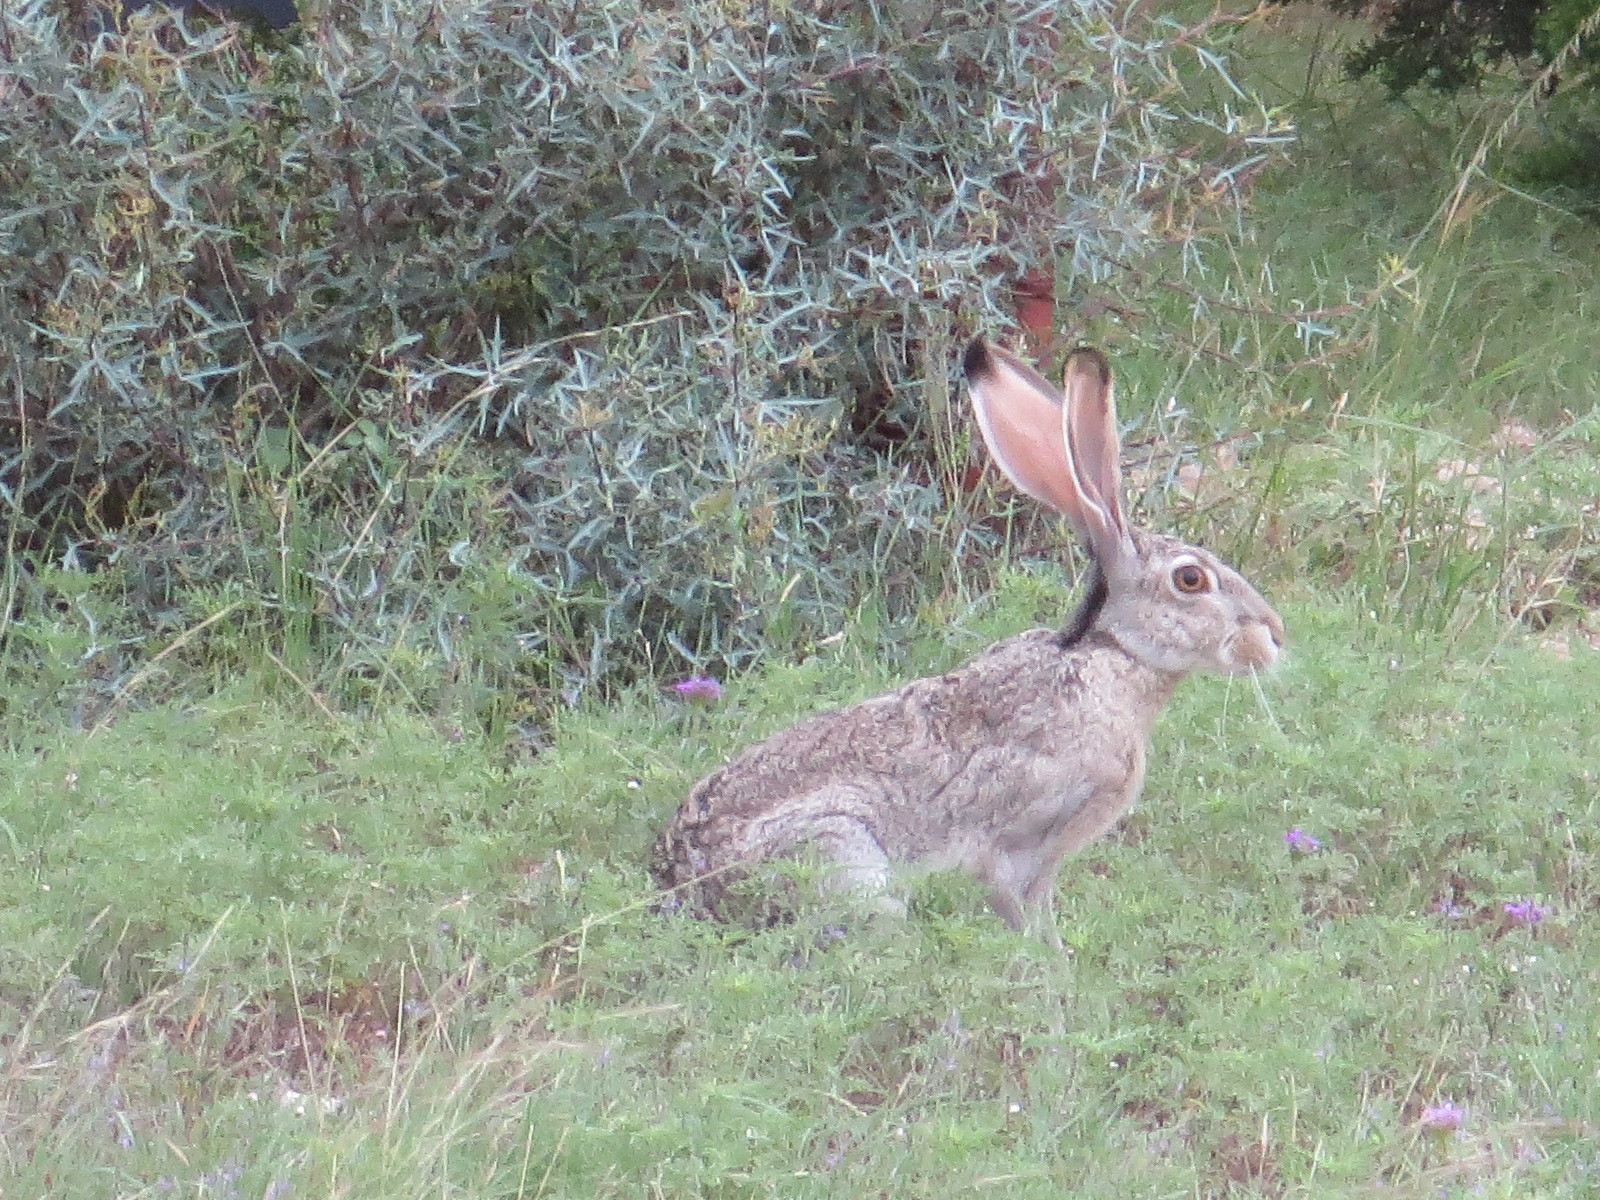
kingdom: Animalia
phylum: Chordata
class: Mammalia
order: Lagomorpha
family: Leporidae
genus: Lepus
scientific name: Lepus californicus
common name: Black-tailed jackrabbit
